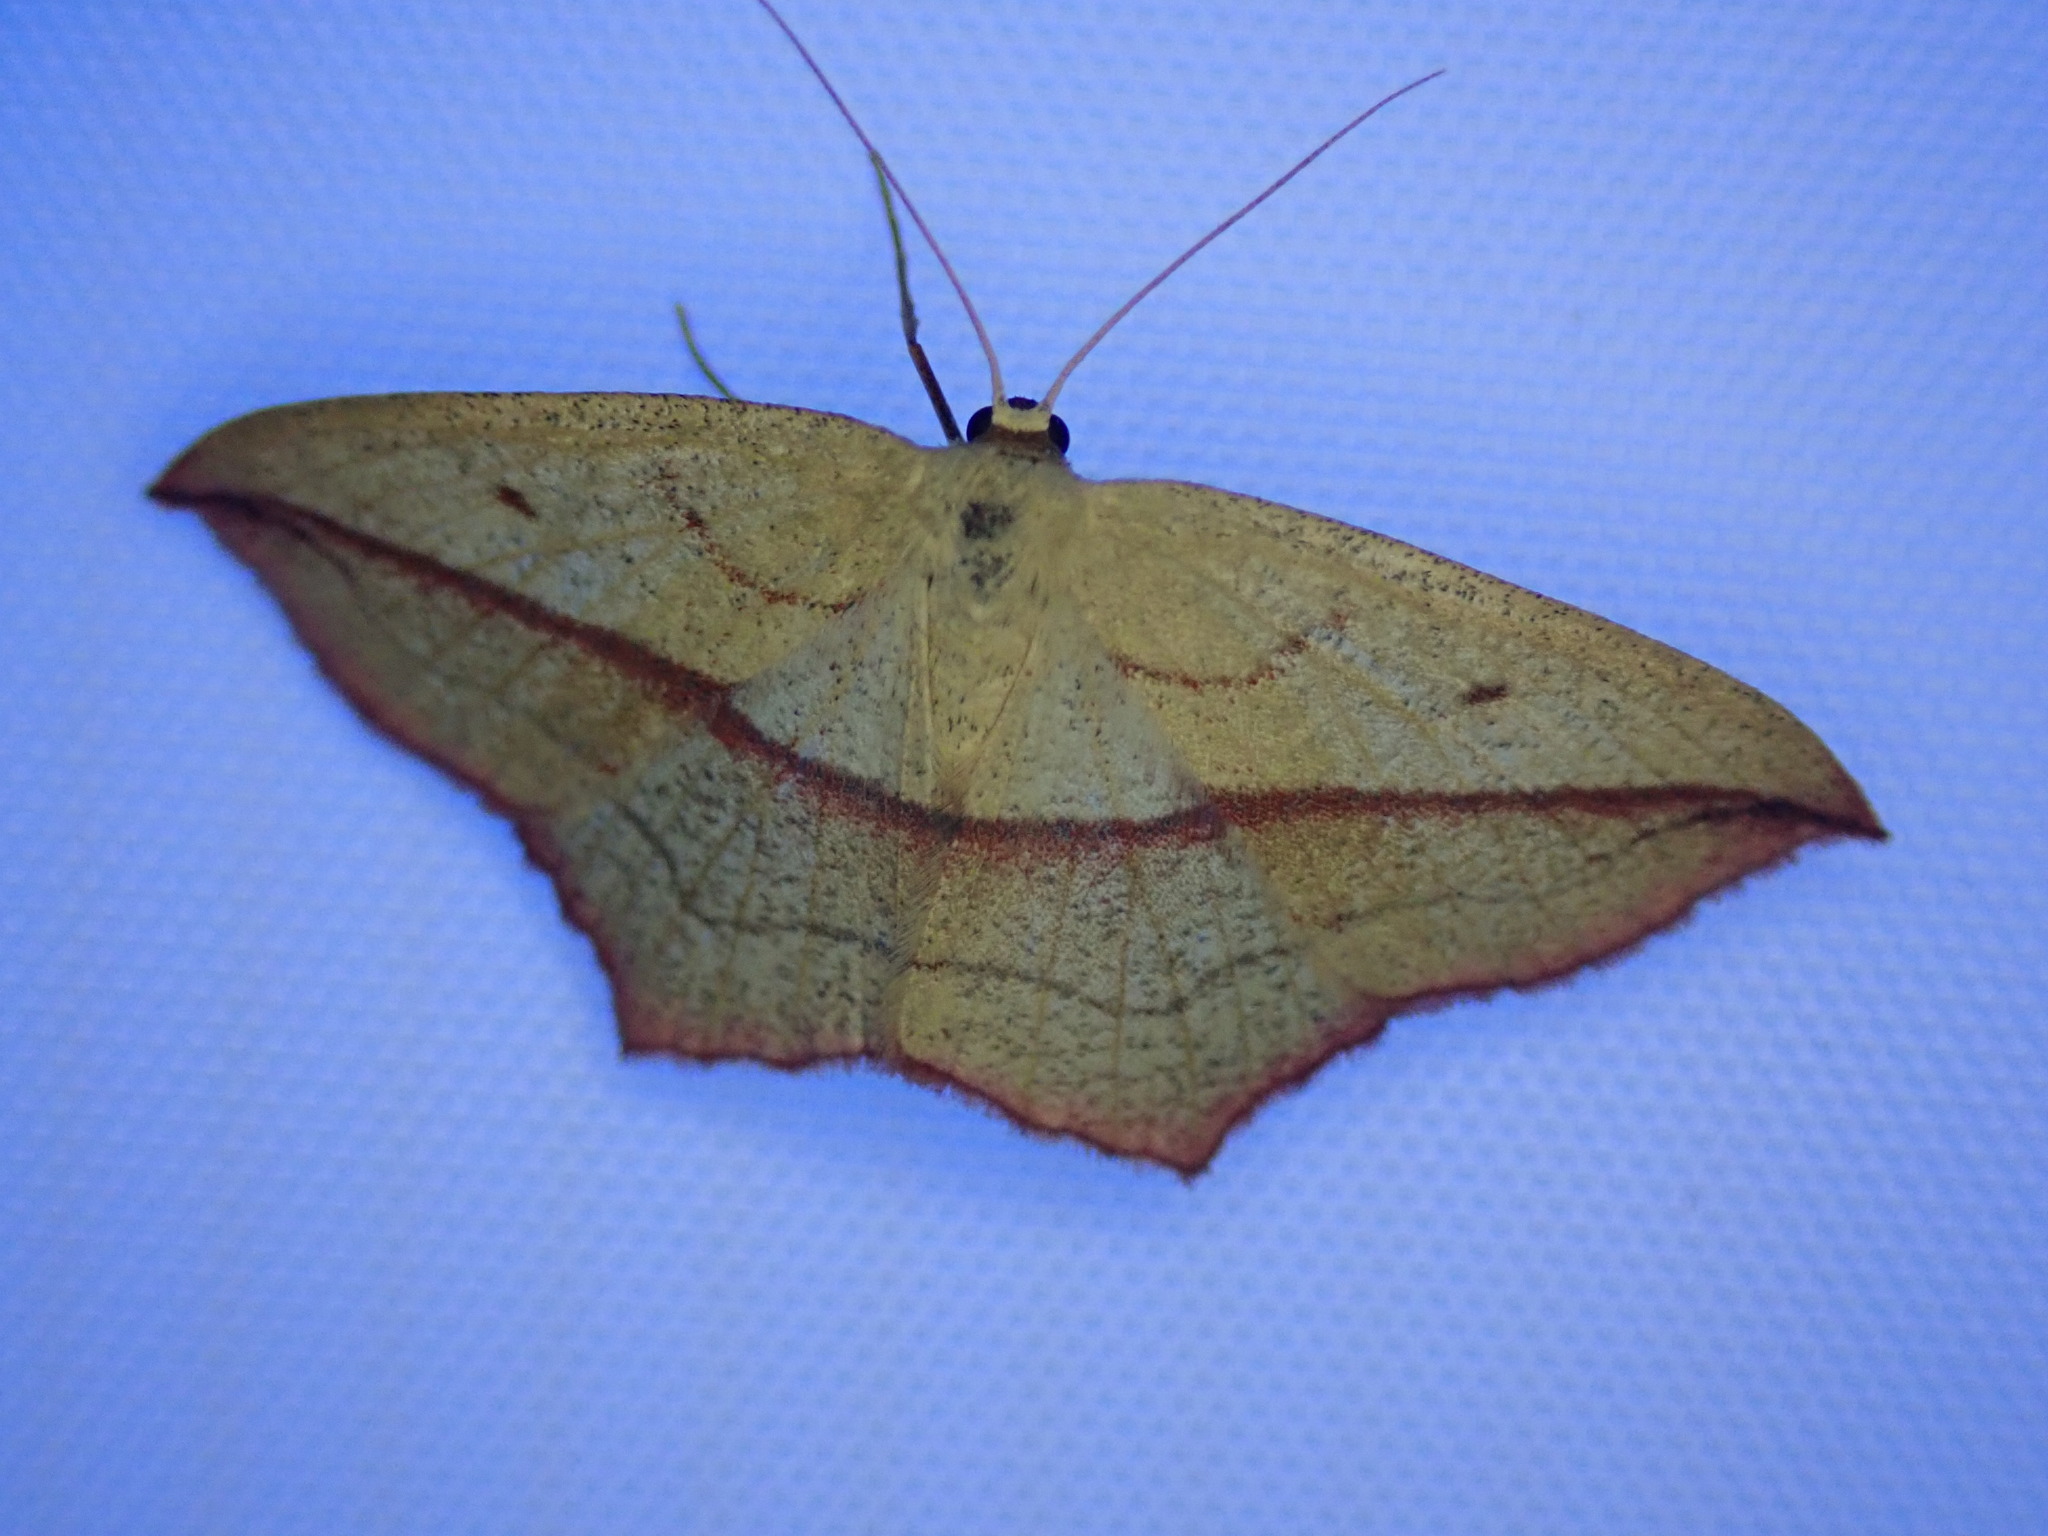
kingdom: Animalia
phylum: Arthropoda
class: Insecta
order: Lepidoptera
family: Geometridae
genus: Timandra
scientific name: Timandra comae
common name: Blood-vein
